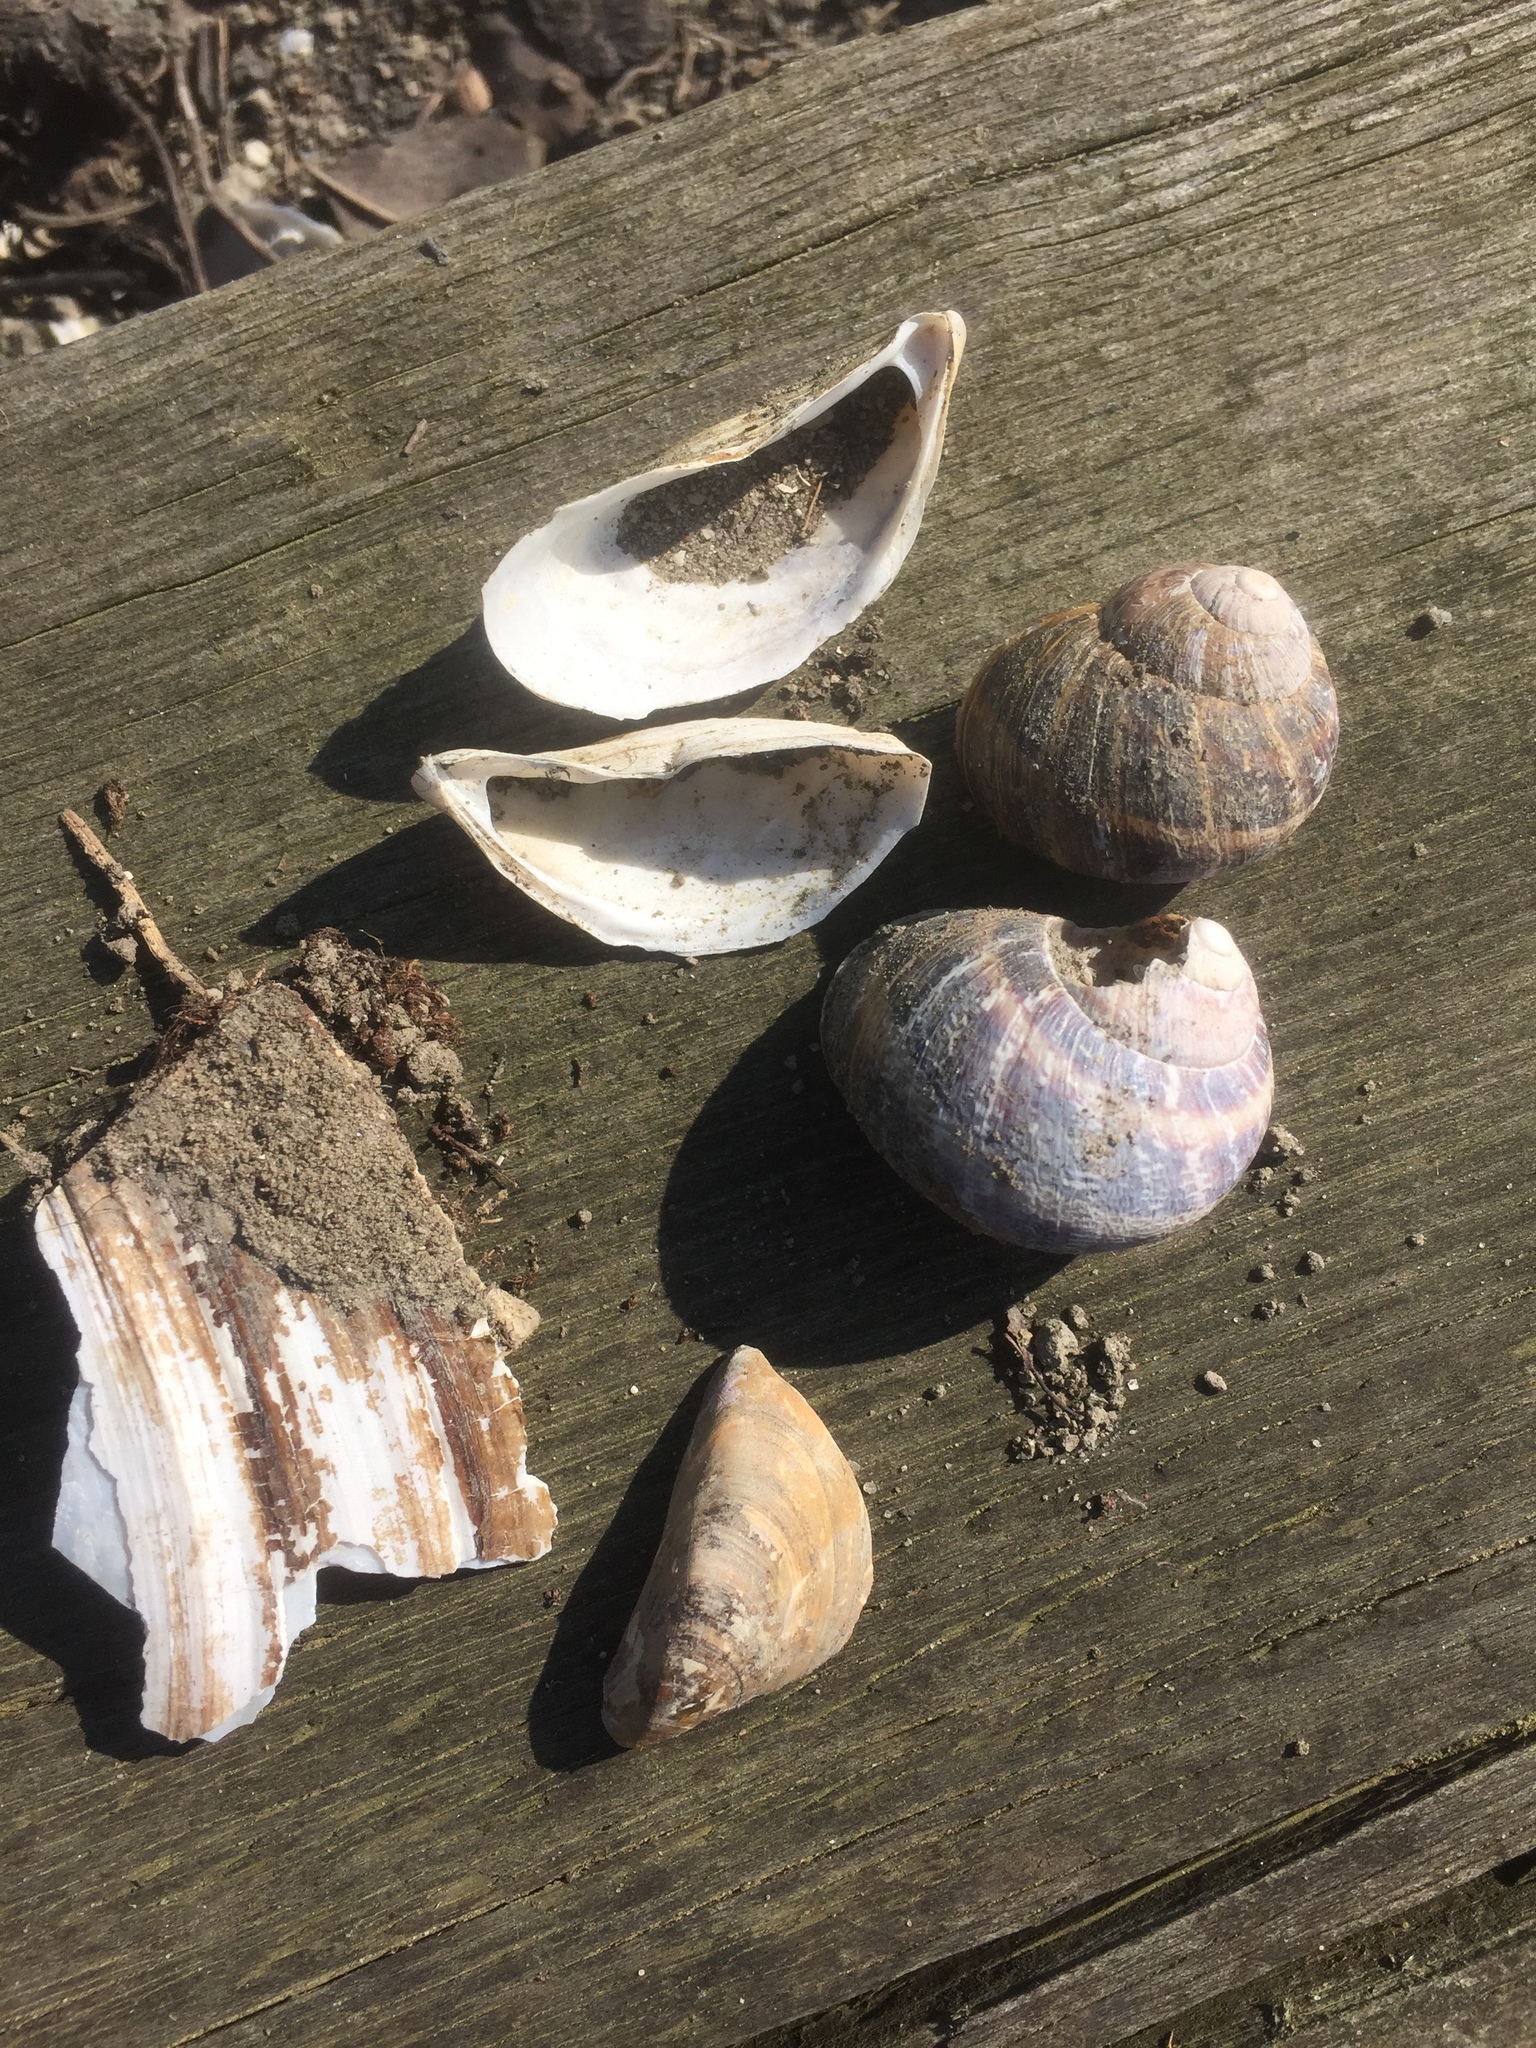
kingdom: Animalia
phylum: Mollusca
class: Gastropoda
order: Stylommatophora
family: Helicidae
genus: Cornu
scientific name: Cornu aspersum
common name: Brown garden snail
